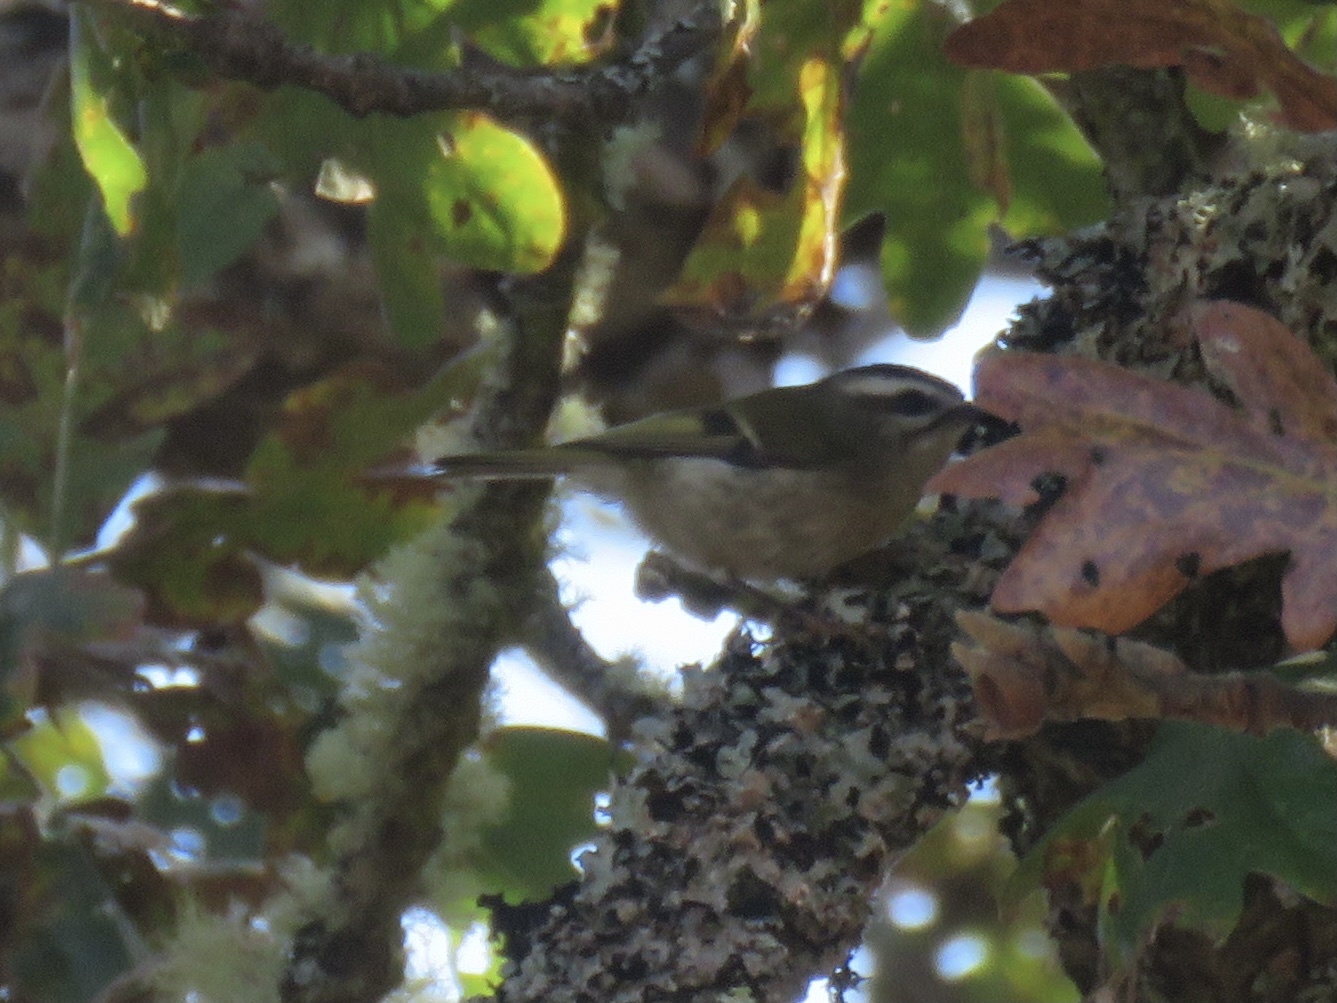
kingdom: Animalia
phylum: Chordata
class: Aves
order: Passeriformes
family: Regulidae
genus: Regulus
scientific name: Regulus satrapa
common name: Golden-crowned kinglet
